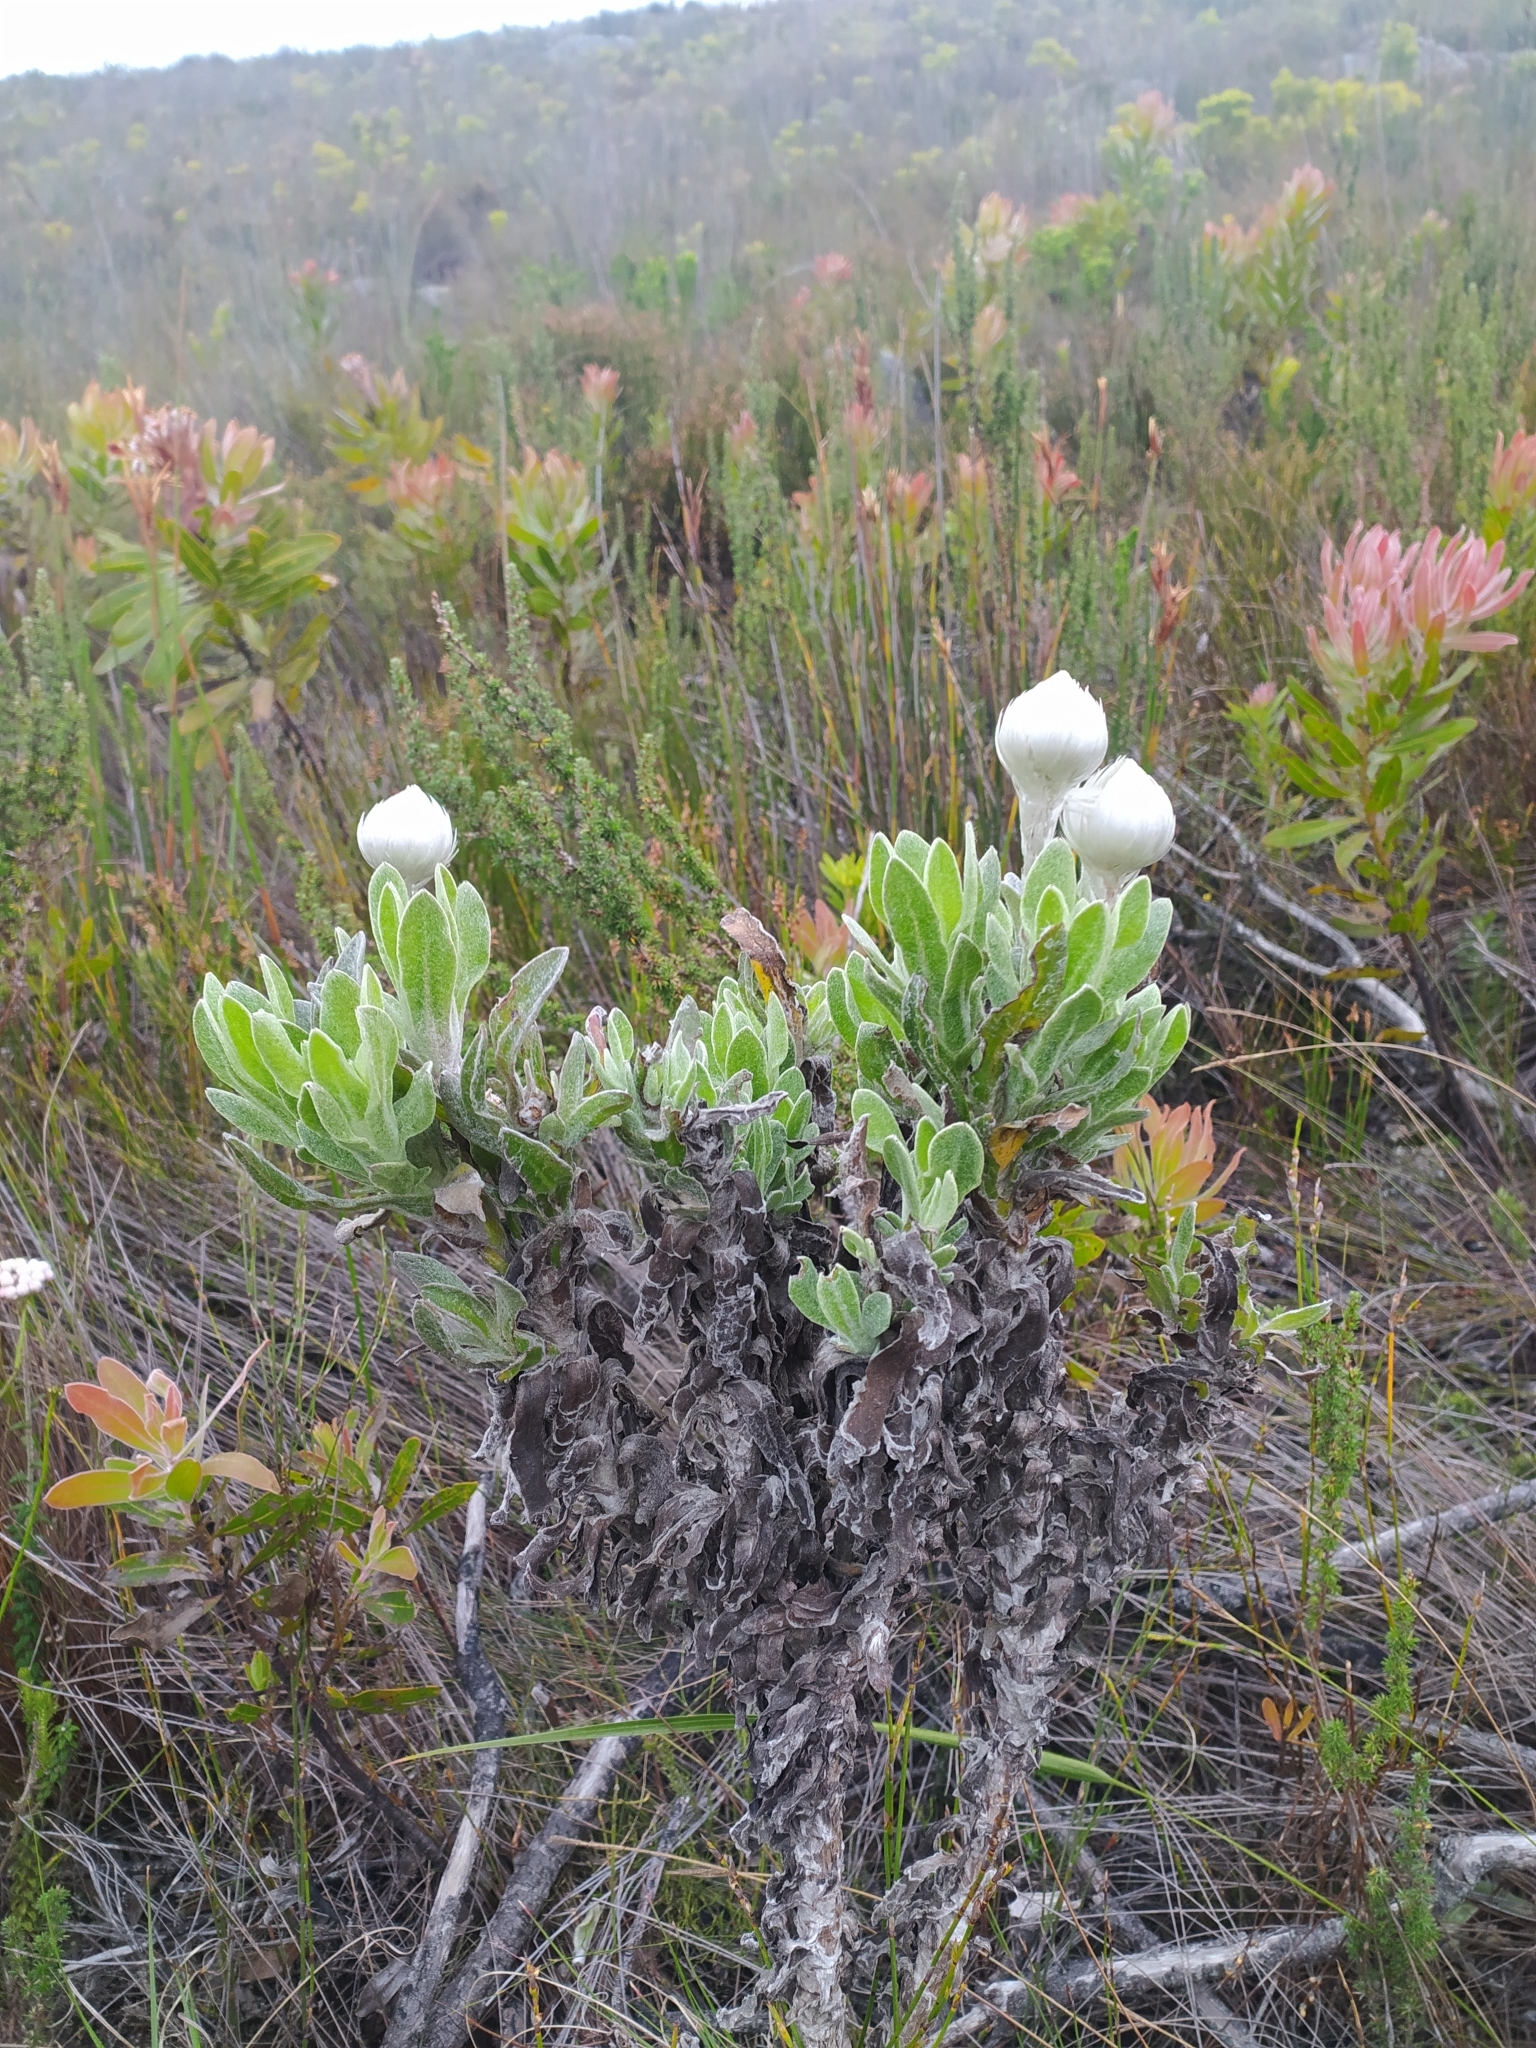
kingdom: Plantae
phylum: Tracheophyta
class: Magnoliopsida
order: Asterales
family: Asteraceae
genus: Syncarpha
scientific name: Syncarpha vestita
